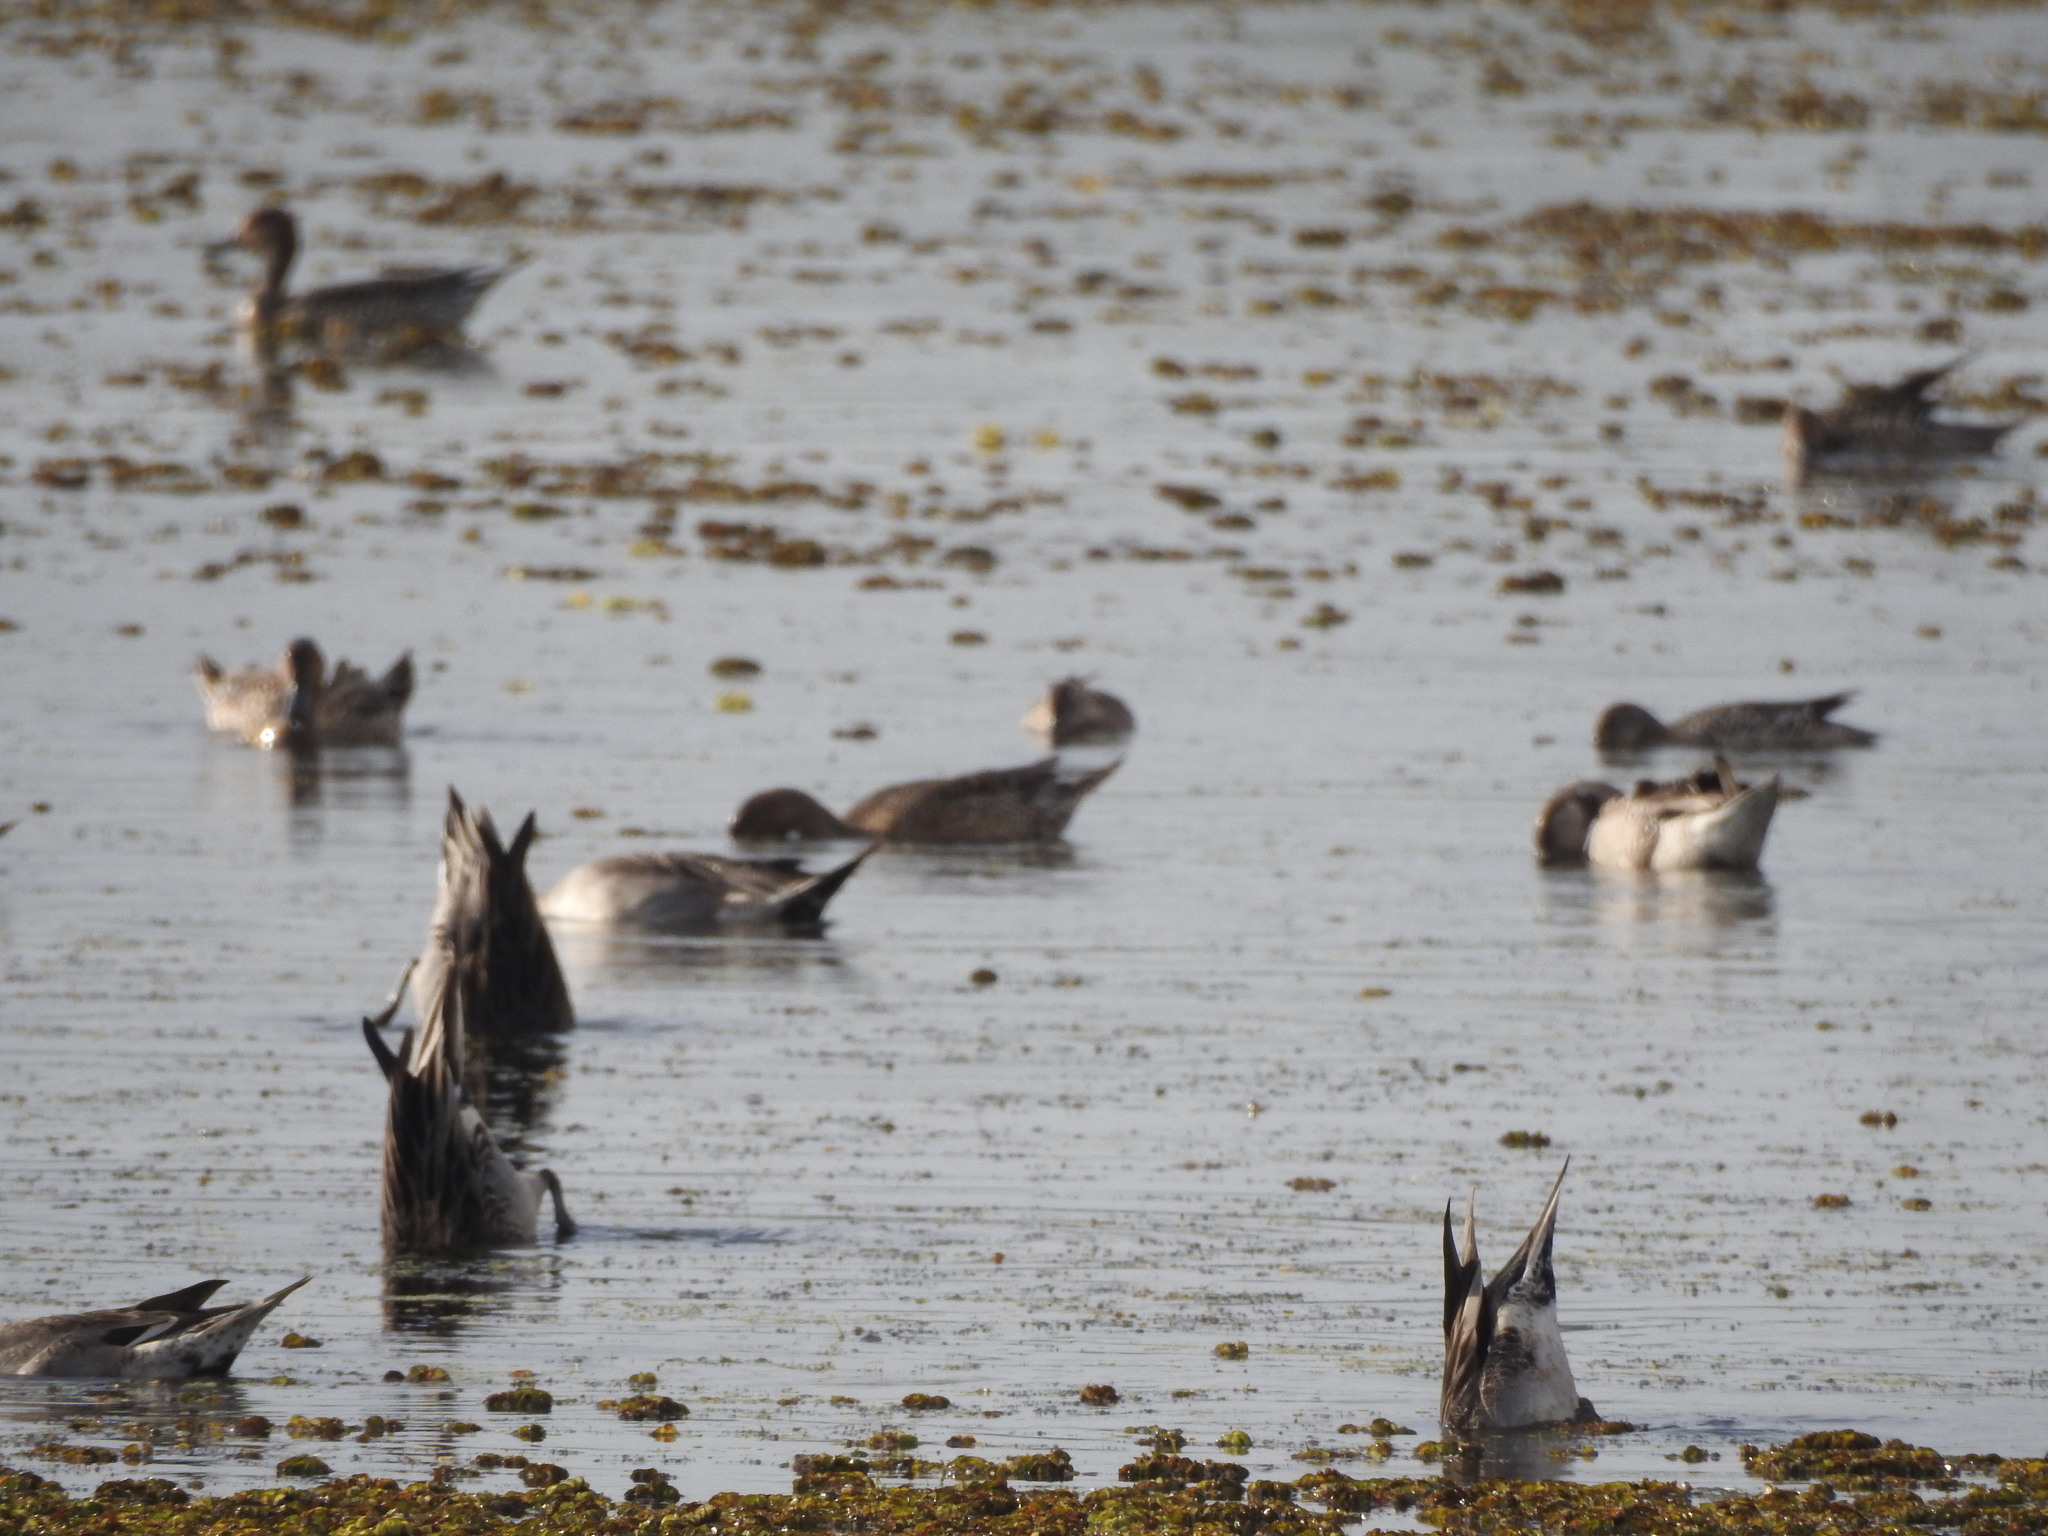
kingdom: Animalia
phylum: Chordata
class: Aves
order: Anseriformes
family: Anatidae
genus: Anas
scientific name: Anas acuta
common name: Northern pintail
